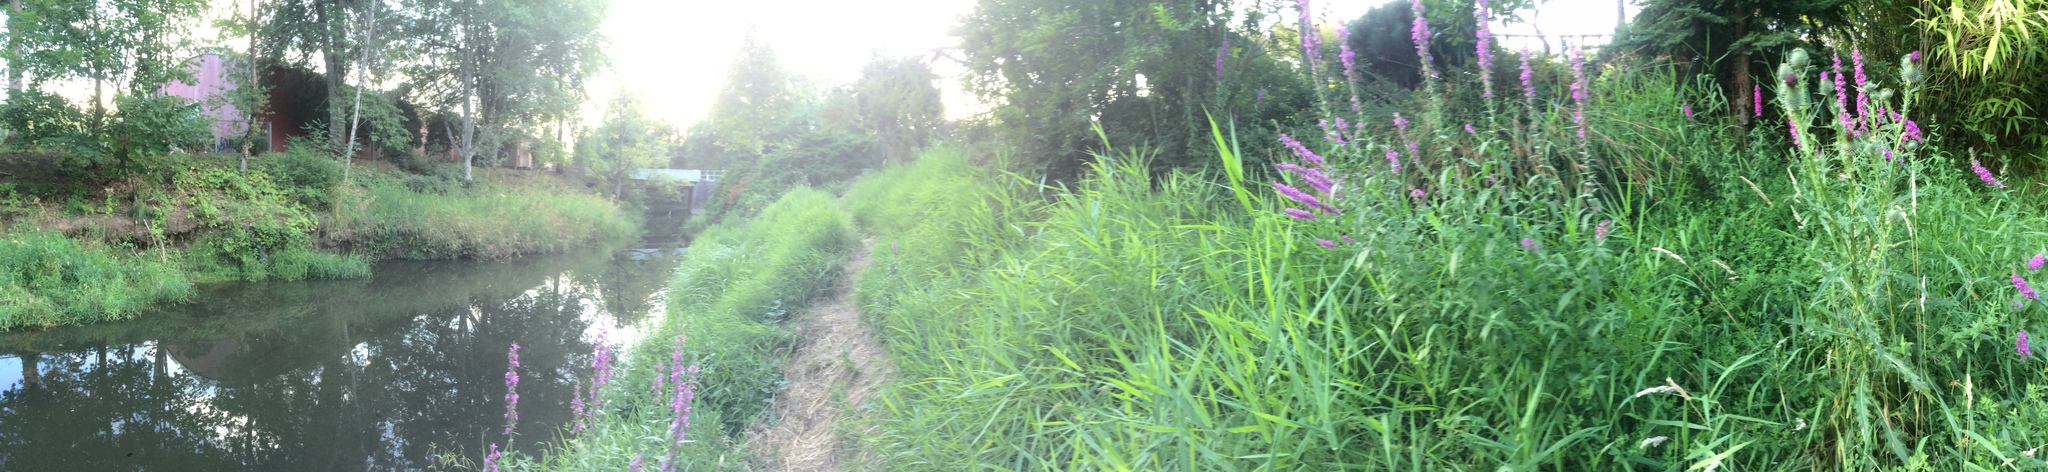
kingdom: Plantae
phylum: Tracheophyta
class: Magnoliopsida
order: Myrtales
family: Lythraceae
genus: Lythrum
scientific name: Lythrum salicaria
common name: Purple loosestrife
